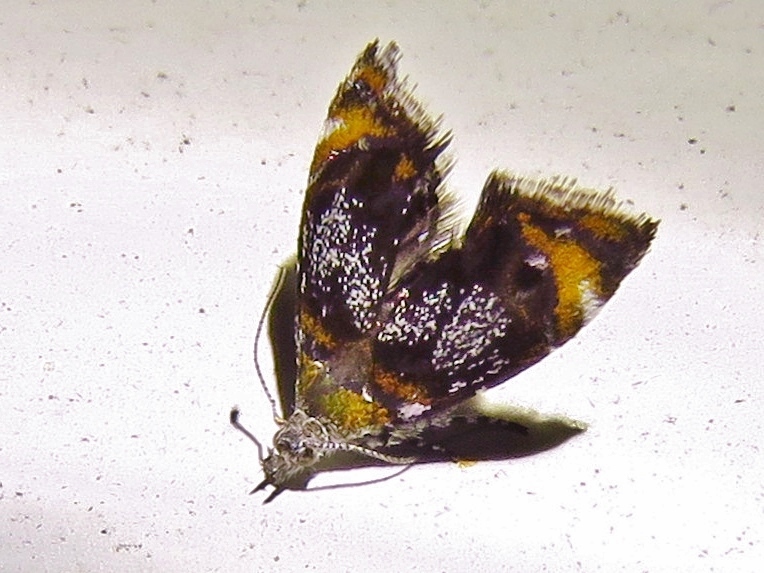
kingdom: Animalia
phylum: Arthropoda
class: Insecta
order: Lepidoptera
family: Choreutidae
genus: Prochoreutis
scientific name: Prochoreutis inflatella
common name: Skullcap skeletonizer moth
